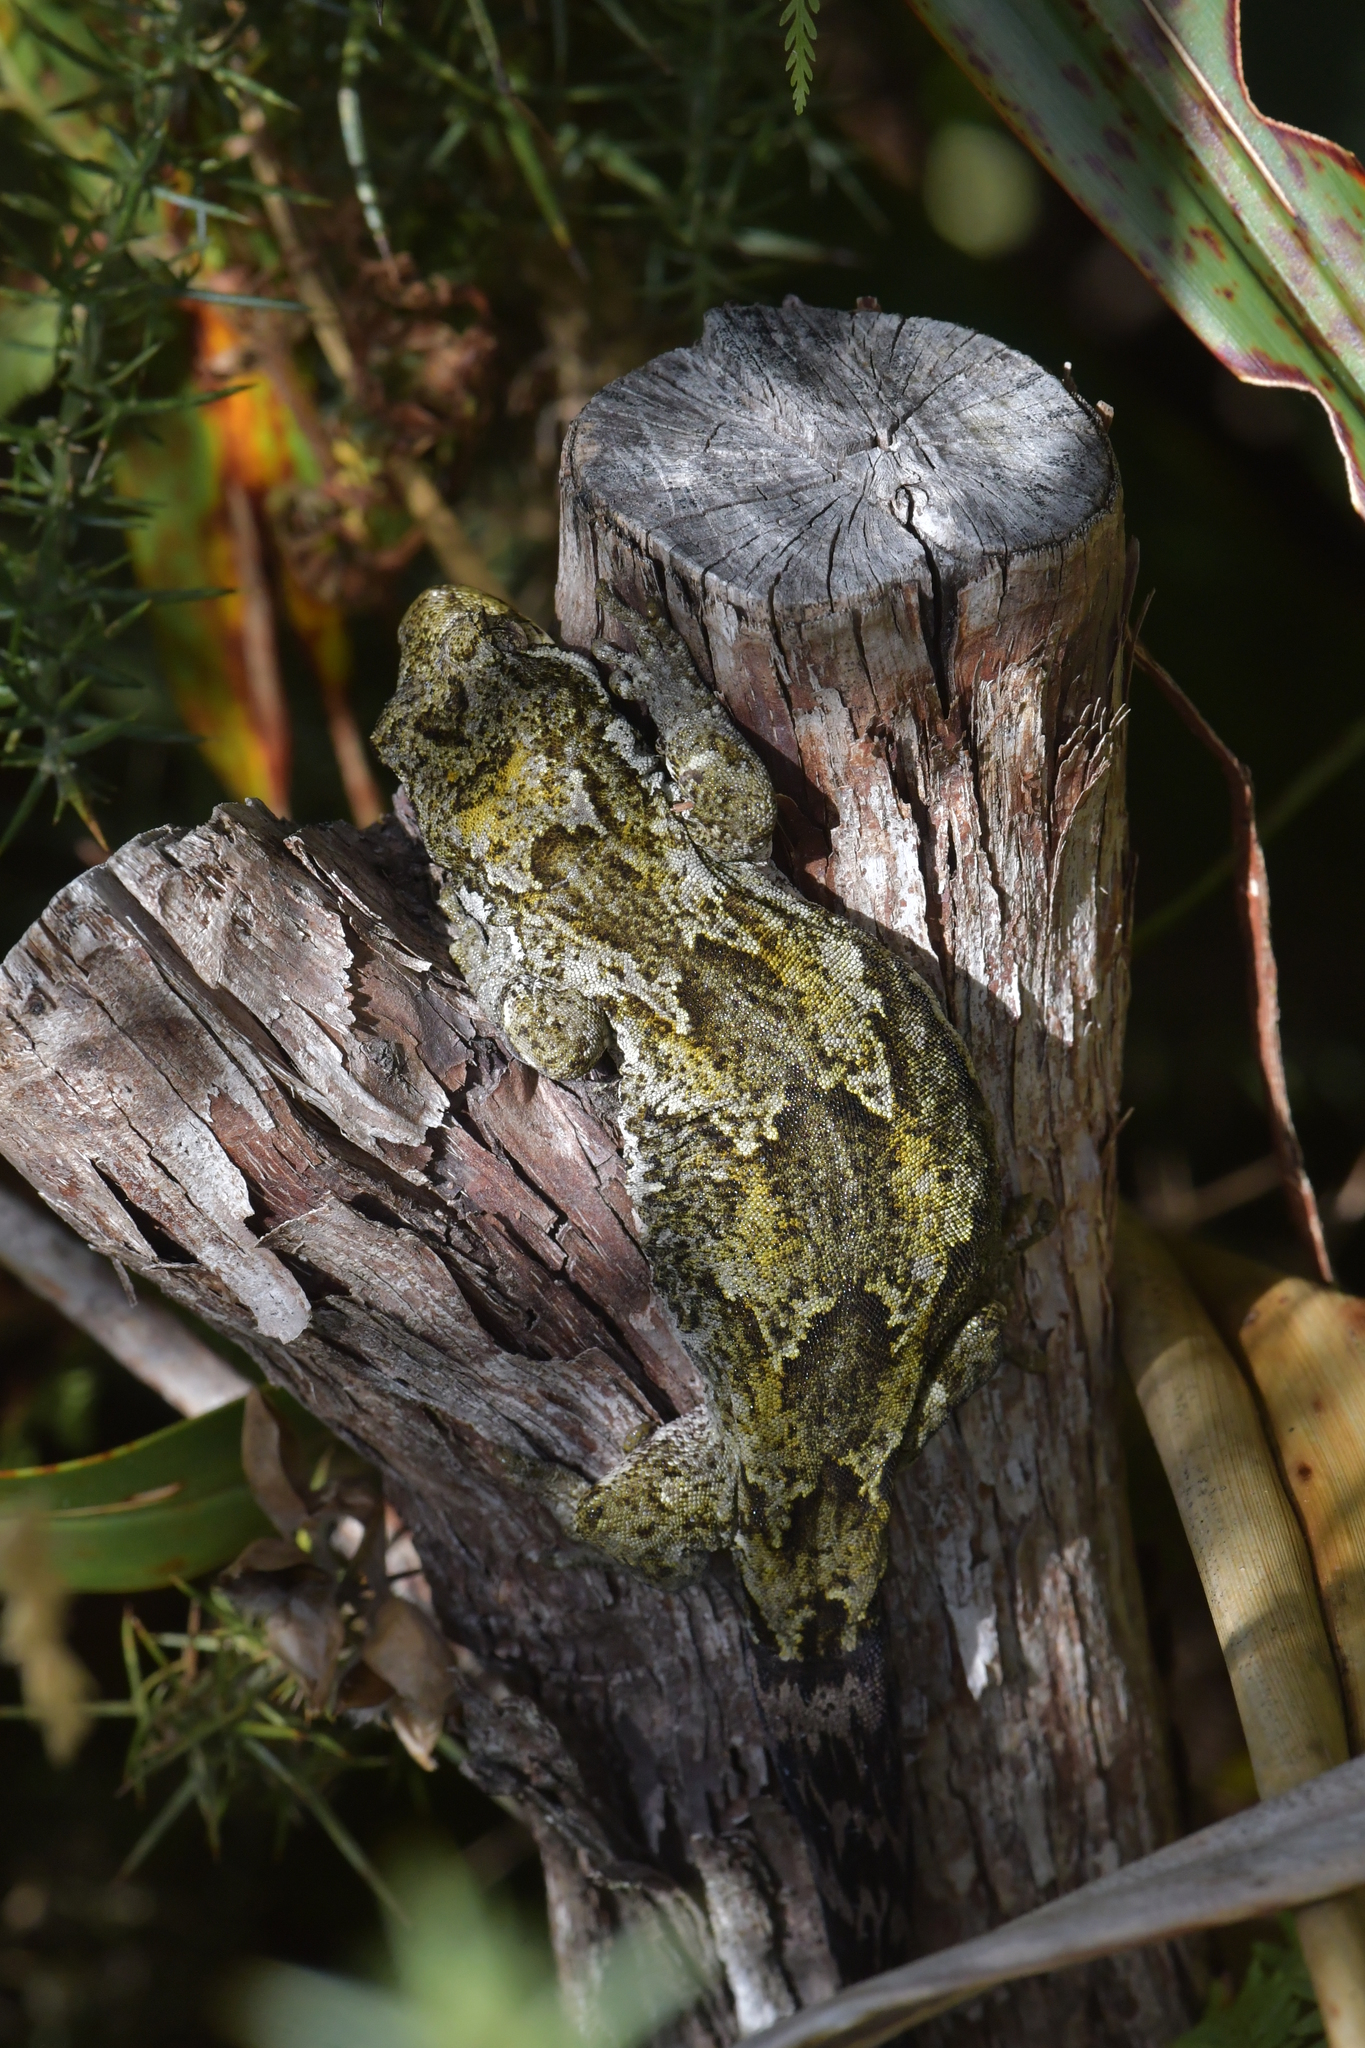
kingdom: Animalia
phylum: Chordata
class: Squamata
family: Diplodactylidae
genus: Mokopirirakau
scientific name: Mokopirirakau
